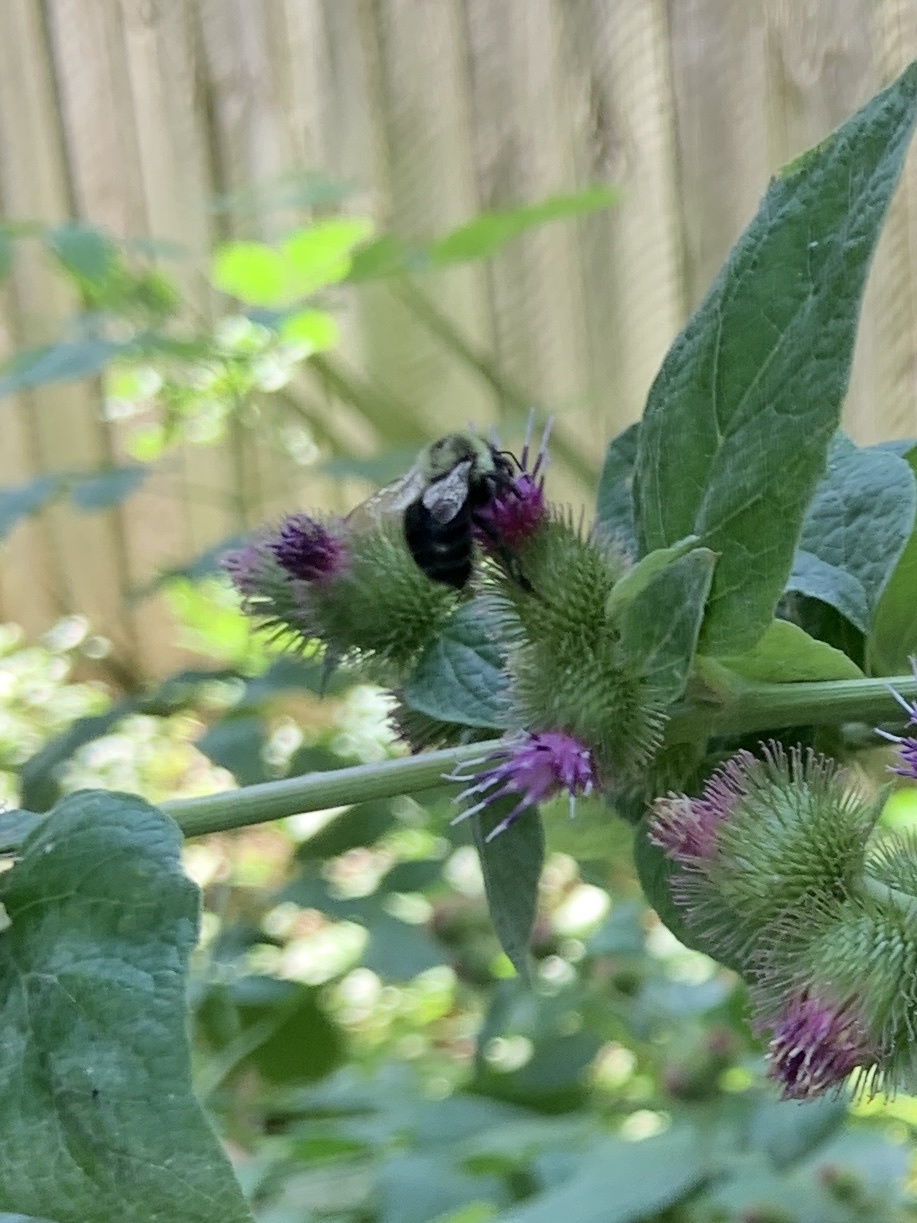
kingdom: Animalia
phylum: Arthropoda
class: Insecta
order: Hymenoptera
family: Apidae
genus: Bombus
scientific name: Bombus impatiens
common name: Common eastern bumble bee
